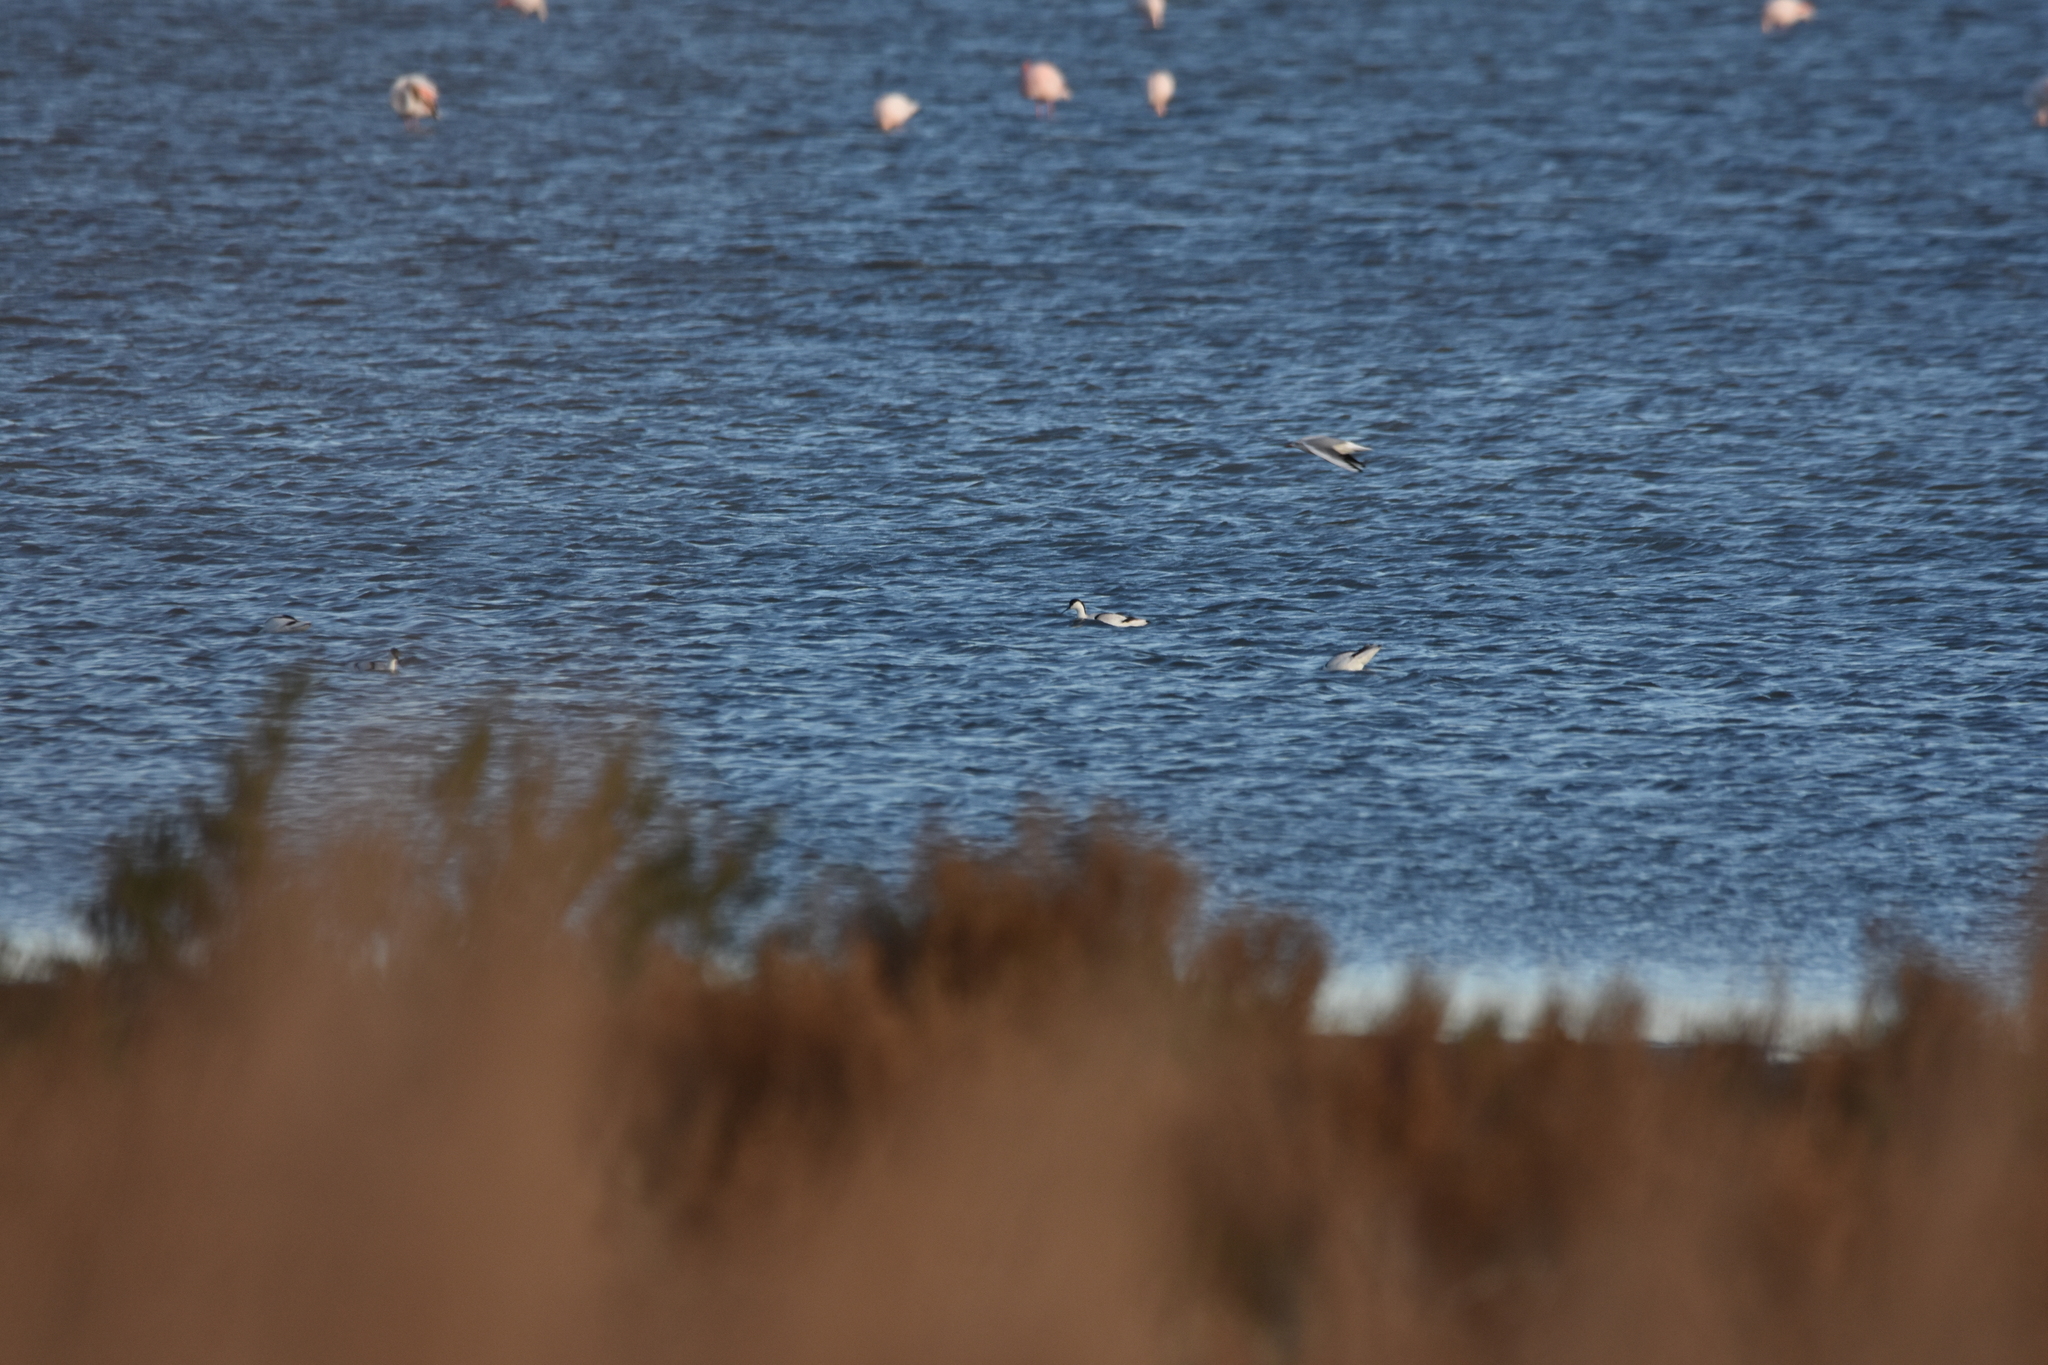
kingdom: Animalia
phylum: Chordata
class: Aves
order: Charadriiformes
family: Recurvirostridae
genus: Recurvirostra
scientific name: Recurvirostra avosetta
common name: Pied avocet
